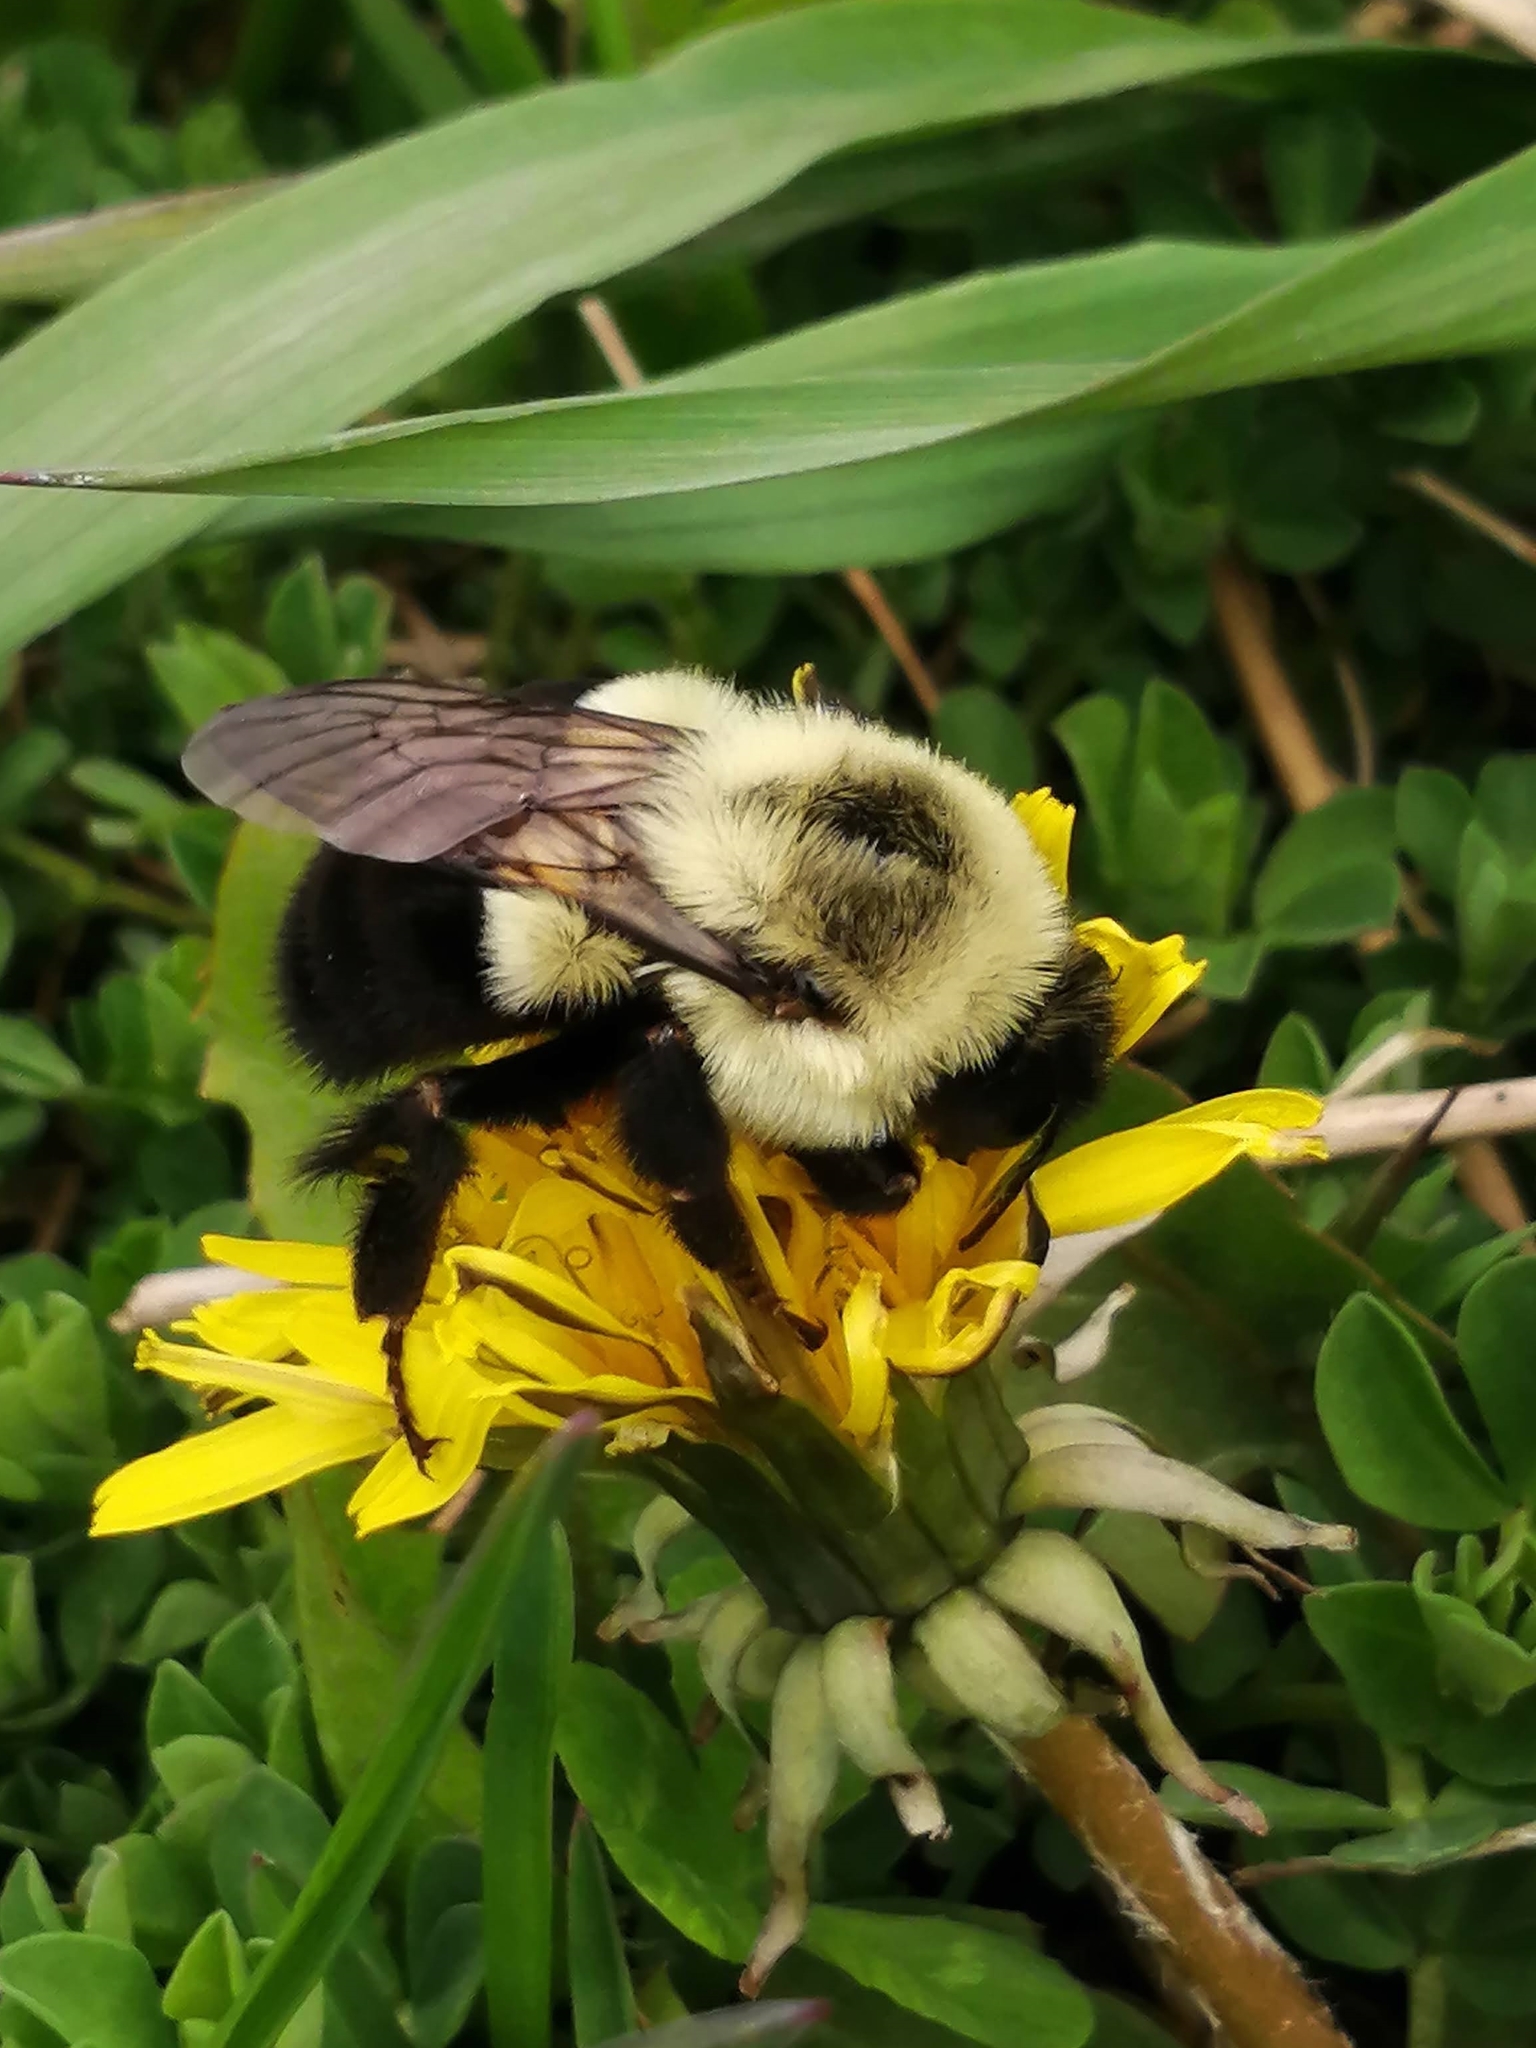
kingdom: Animalia
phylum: Arthropoda
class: Insecta
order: Hymenoptera
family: Apidae
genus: Bombus
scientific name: Bombus impatiens
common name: Common eastern bumble bee
